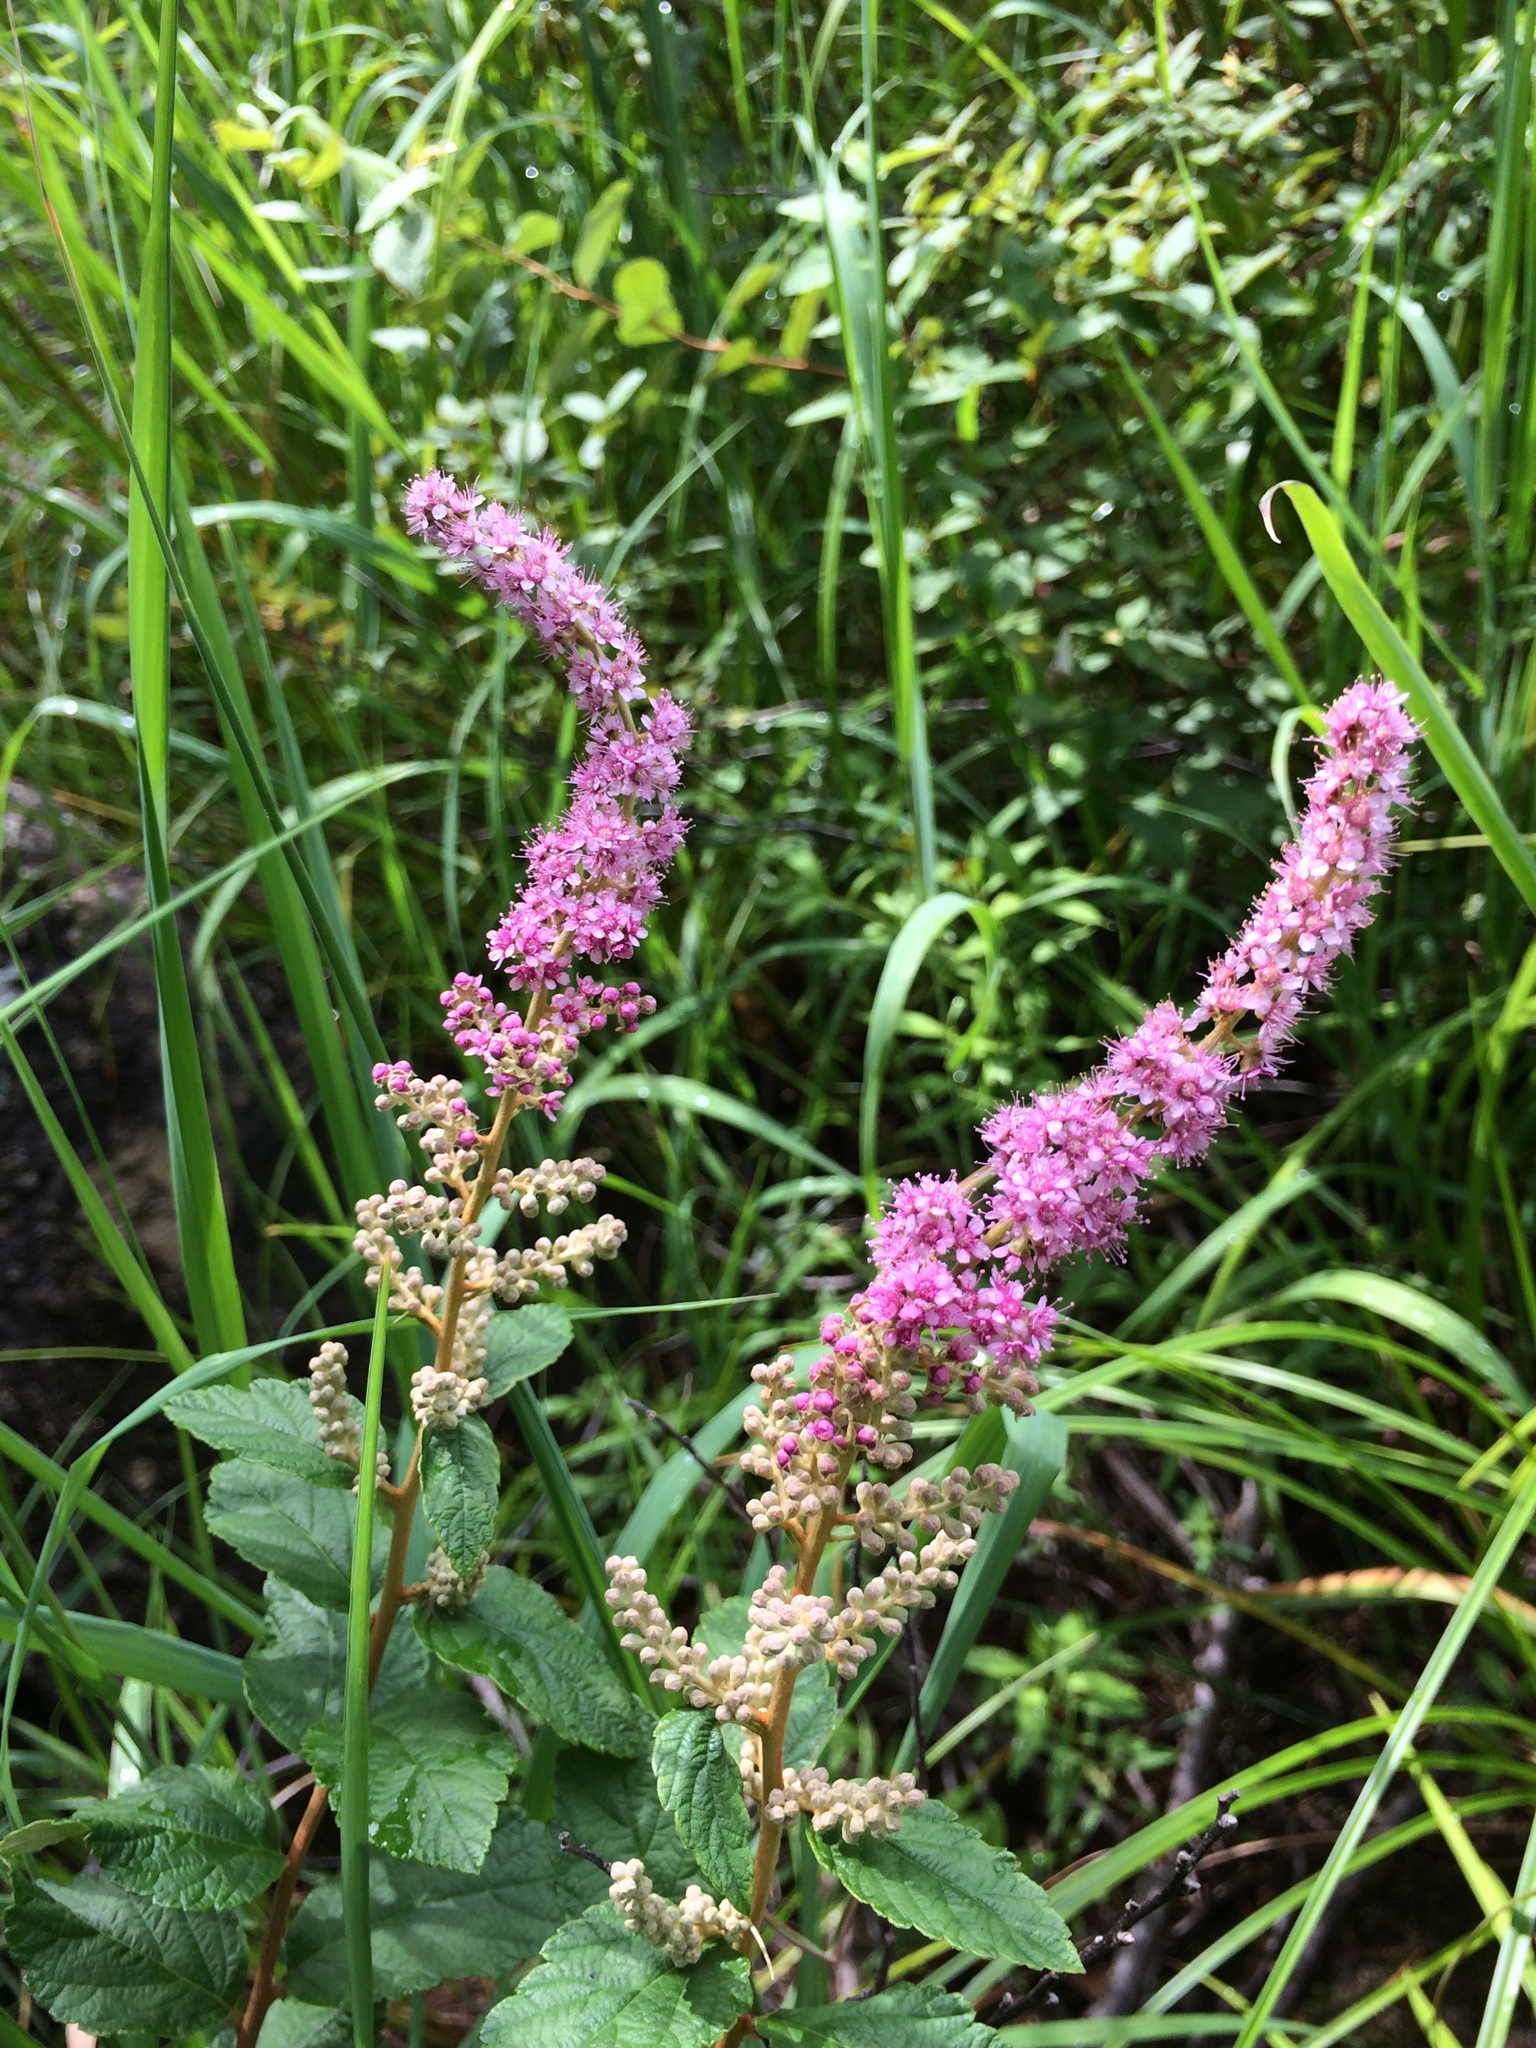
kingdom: Plantae
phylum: Tracheophyta
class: Magnoliopsida
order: Rosales
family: Rosaceae
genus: Spiraea
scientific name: Spiraea tomentosa
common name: Hardhack
